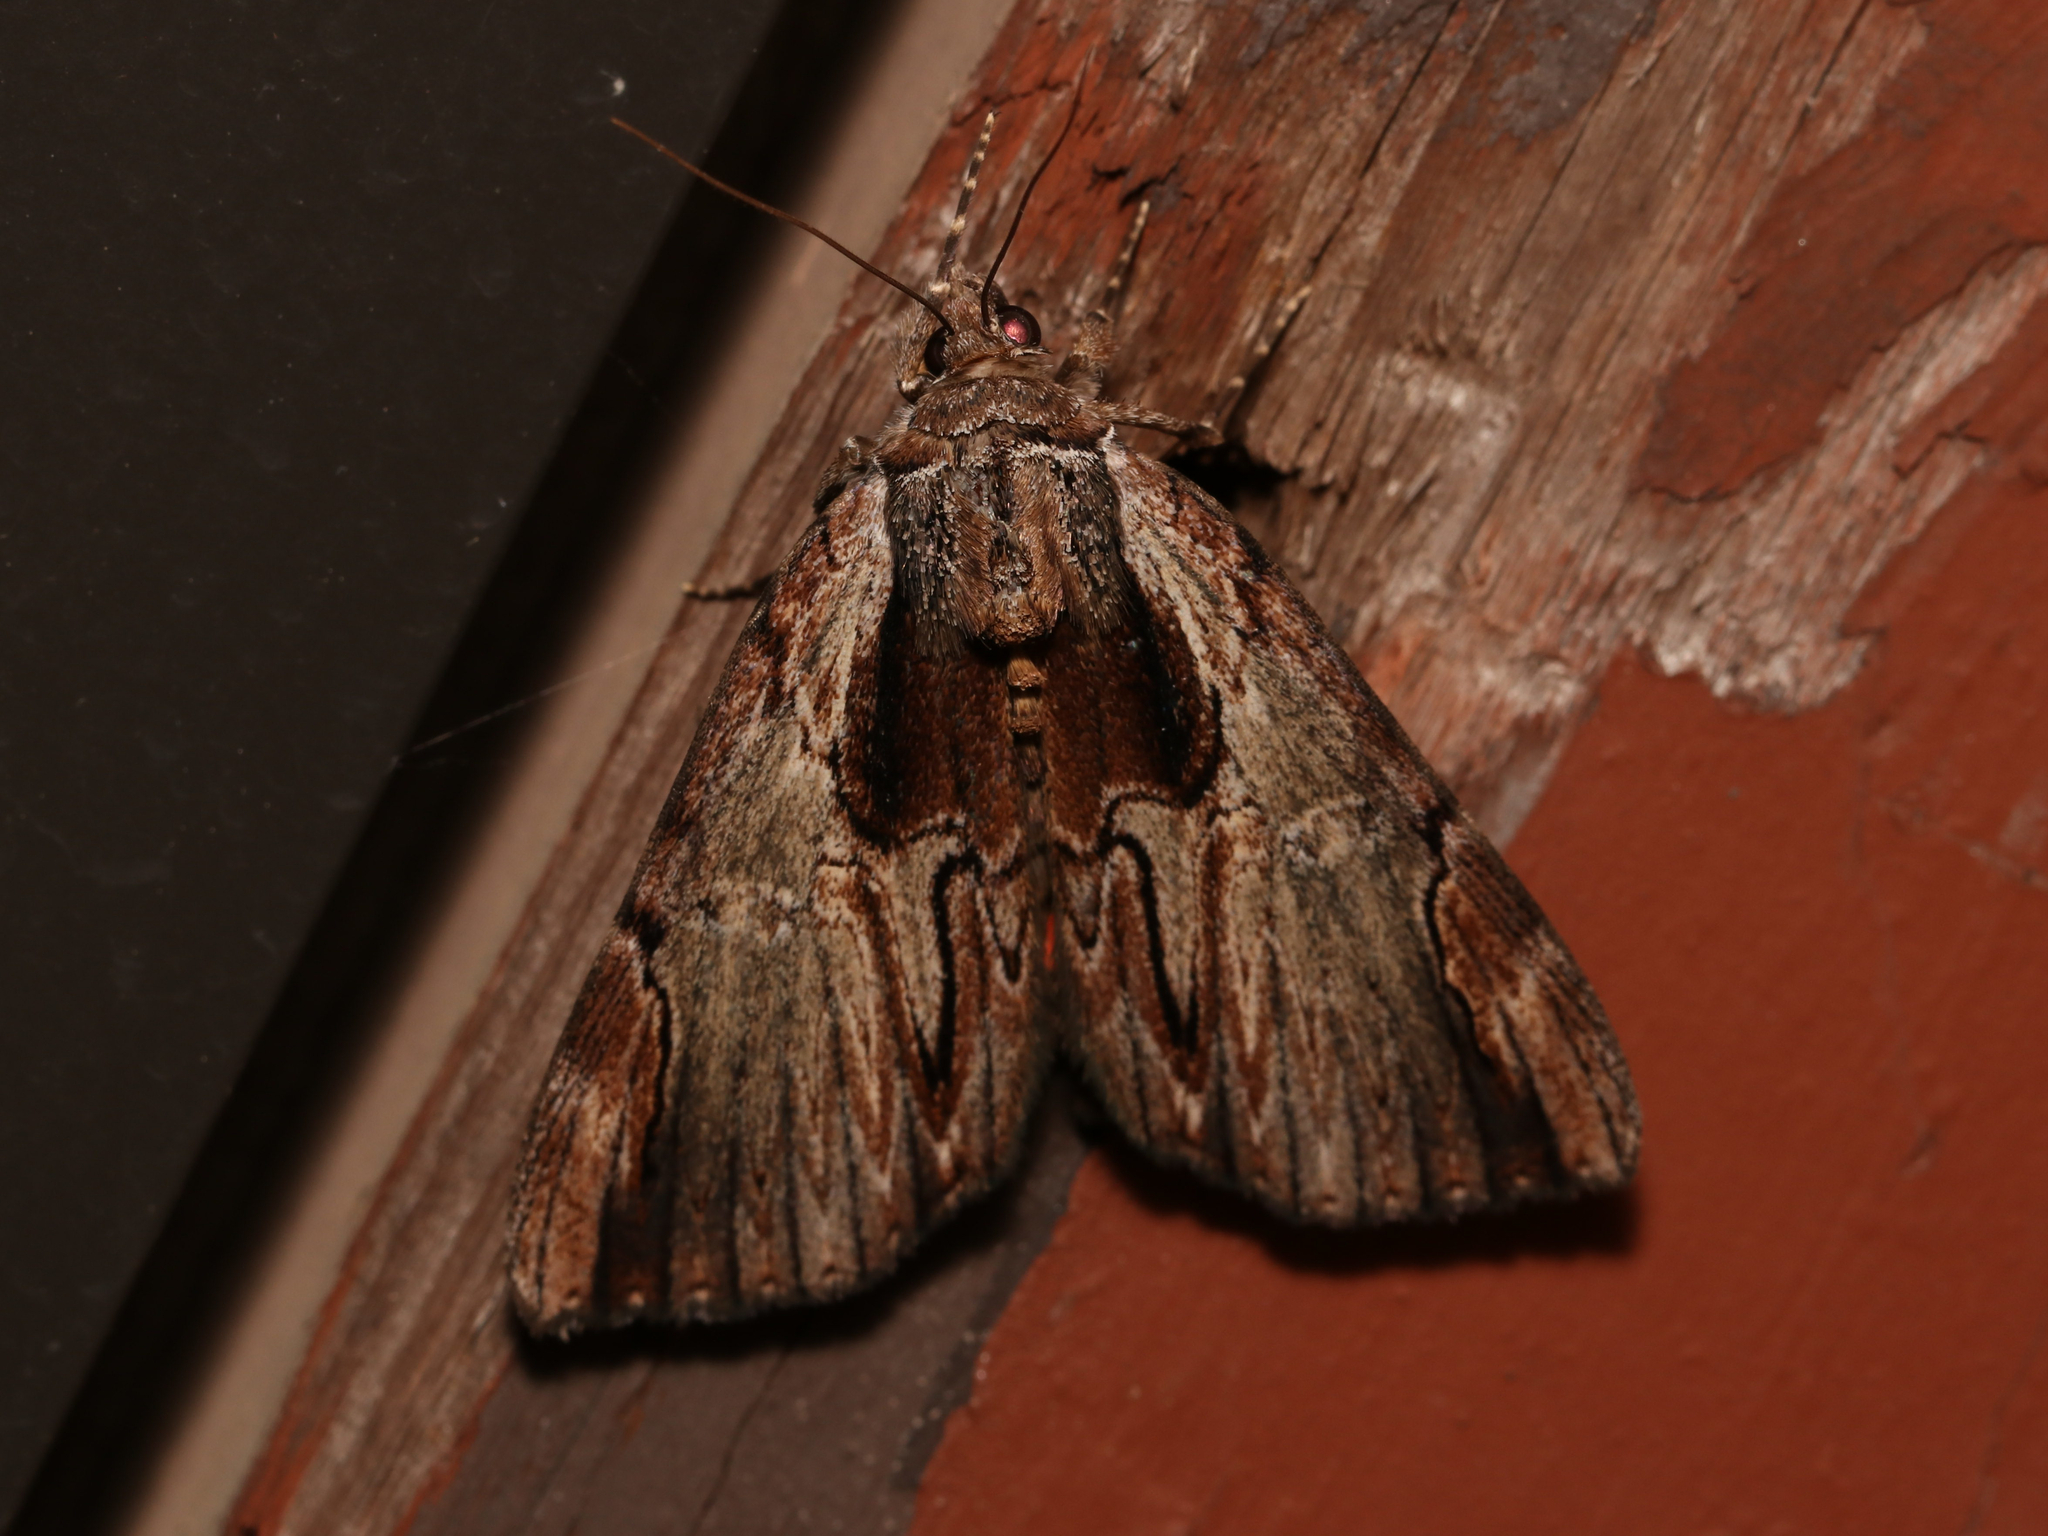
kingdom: Animalia
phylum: Arthropoda
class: Insecta
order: Lepidoptera
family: Erebidae
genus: Catocala
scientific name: Catocala ultronia
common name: Ultronia underwing
